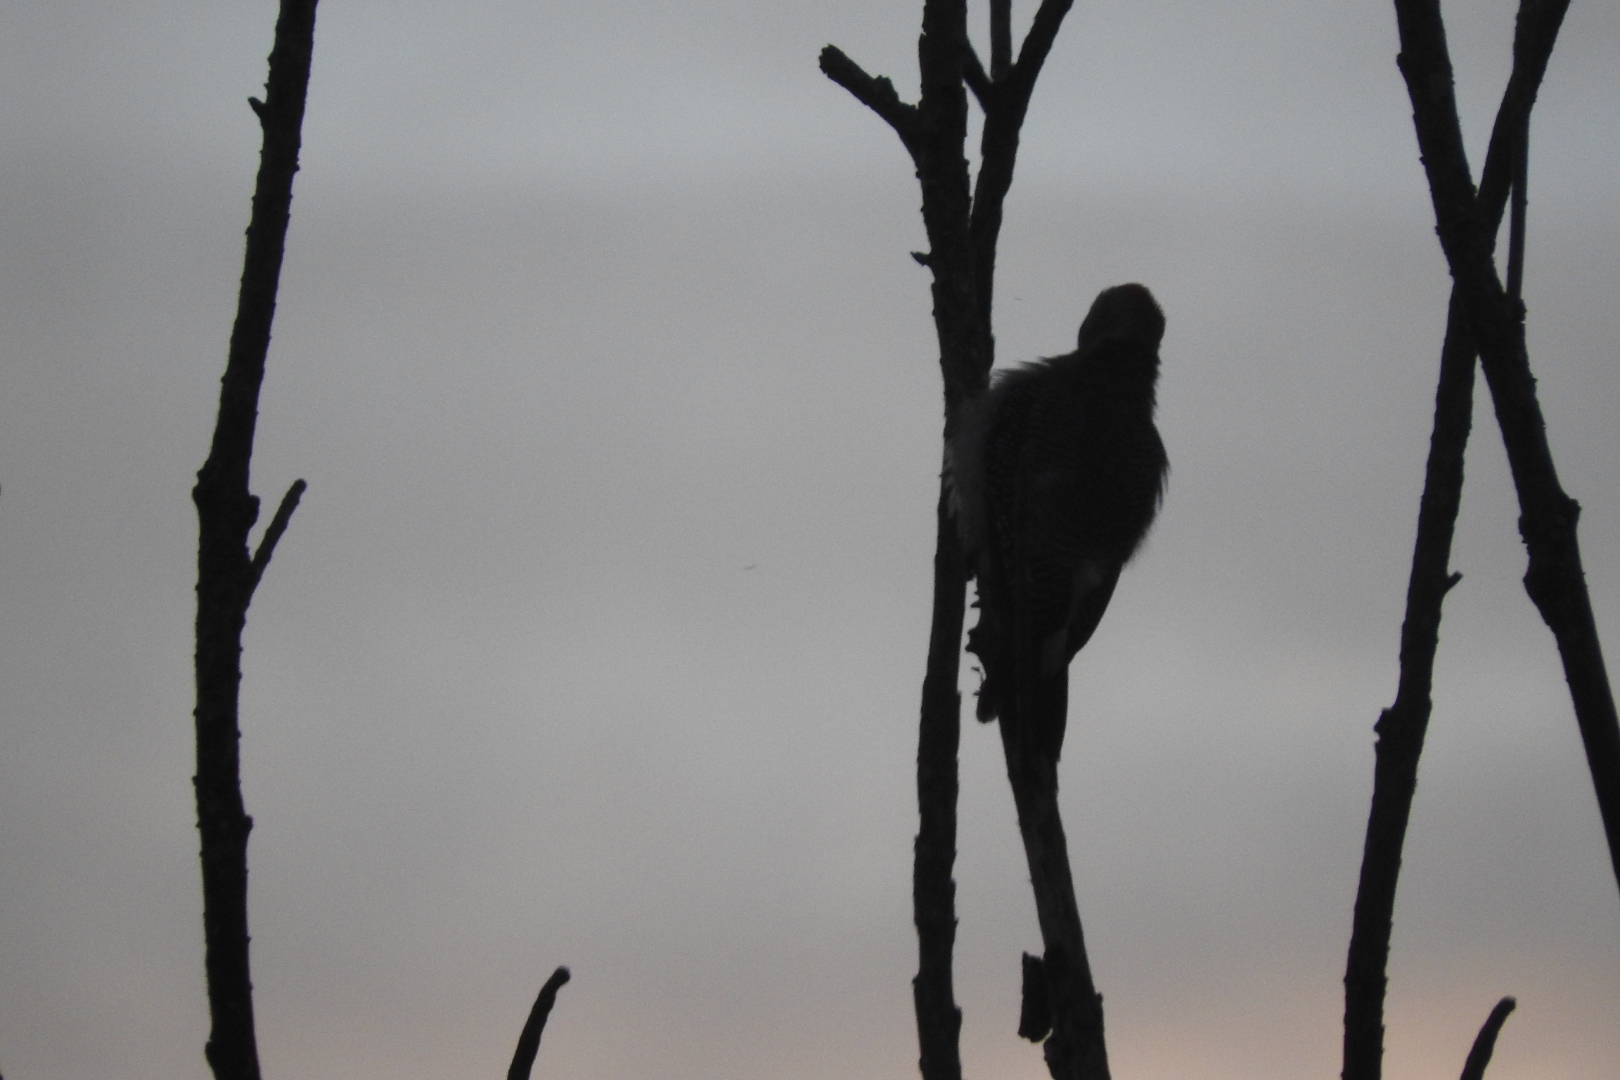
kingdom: Animalia
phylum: Chordata
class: Aves
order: Piciformes
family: Picidae
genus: Melanerpes
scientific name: Melanerpes aurifrons
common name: Golden-fronted woodpecker
